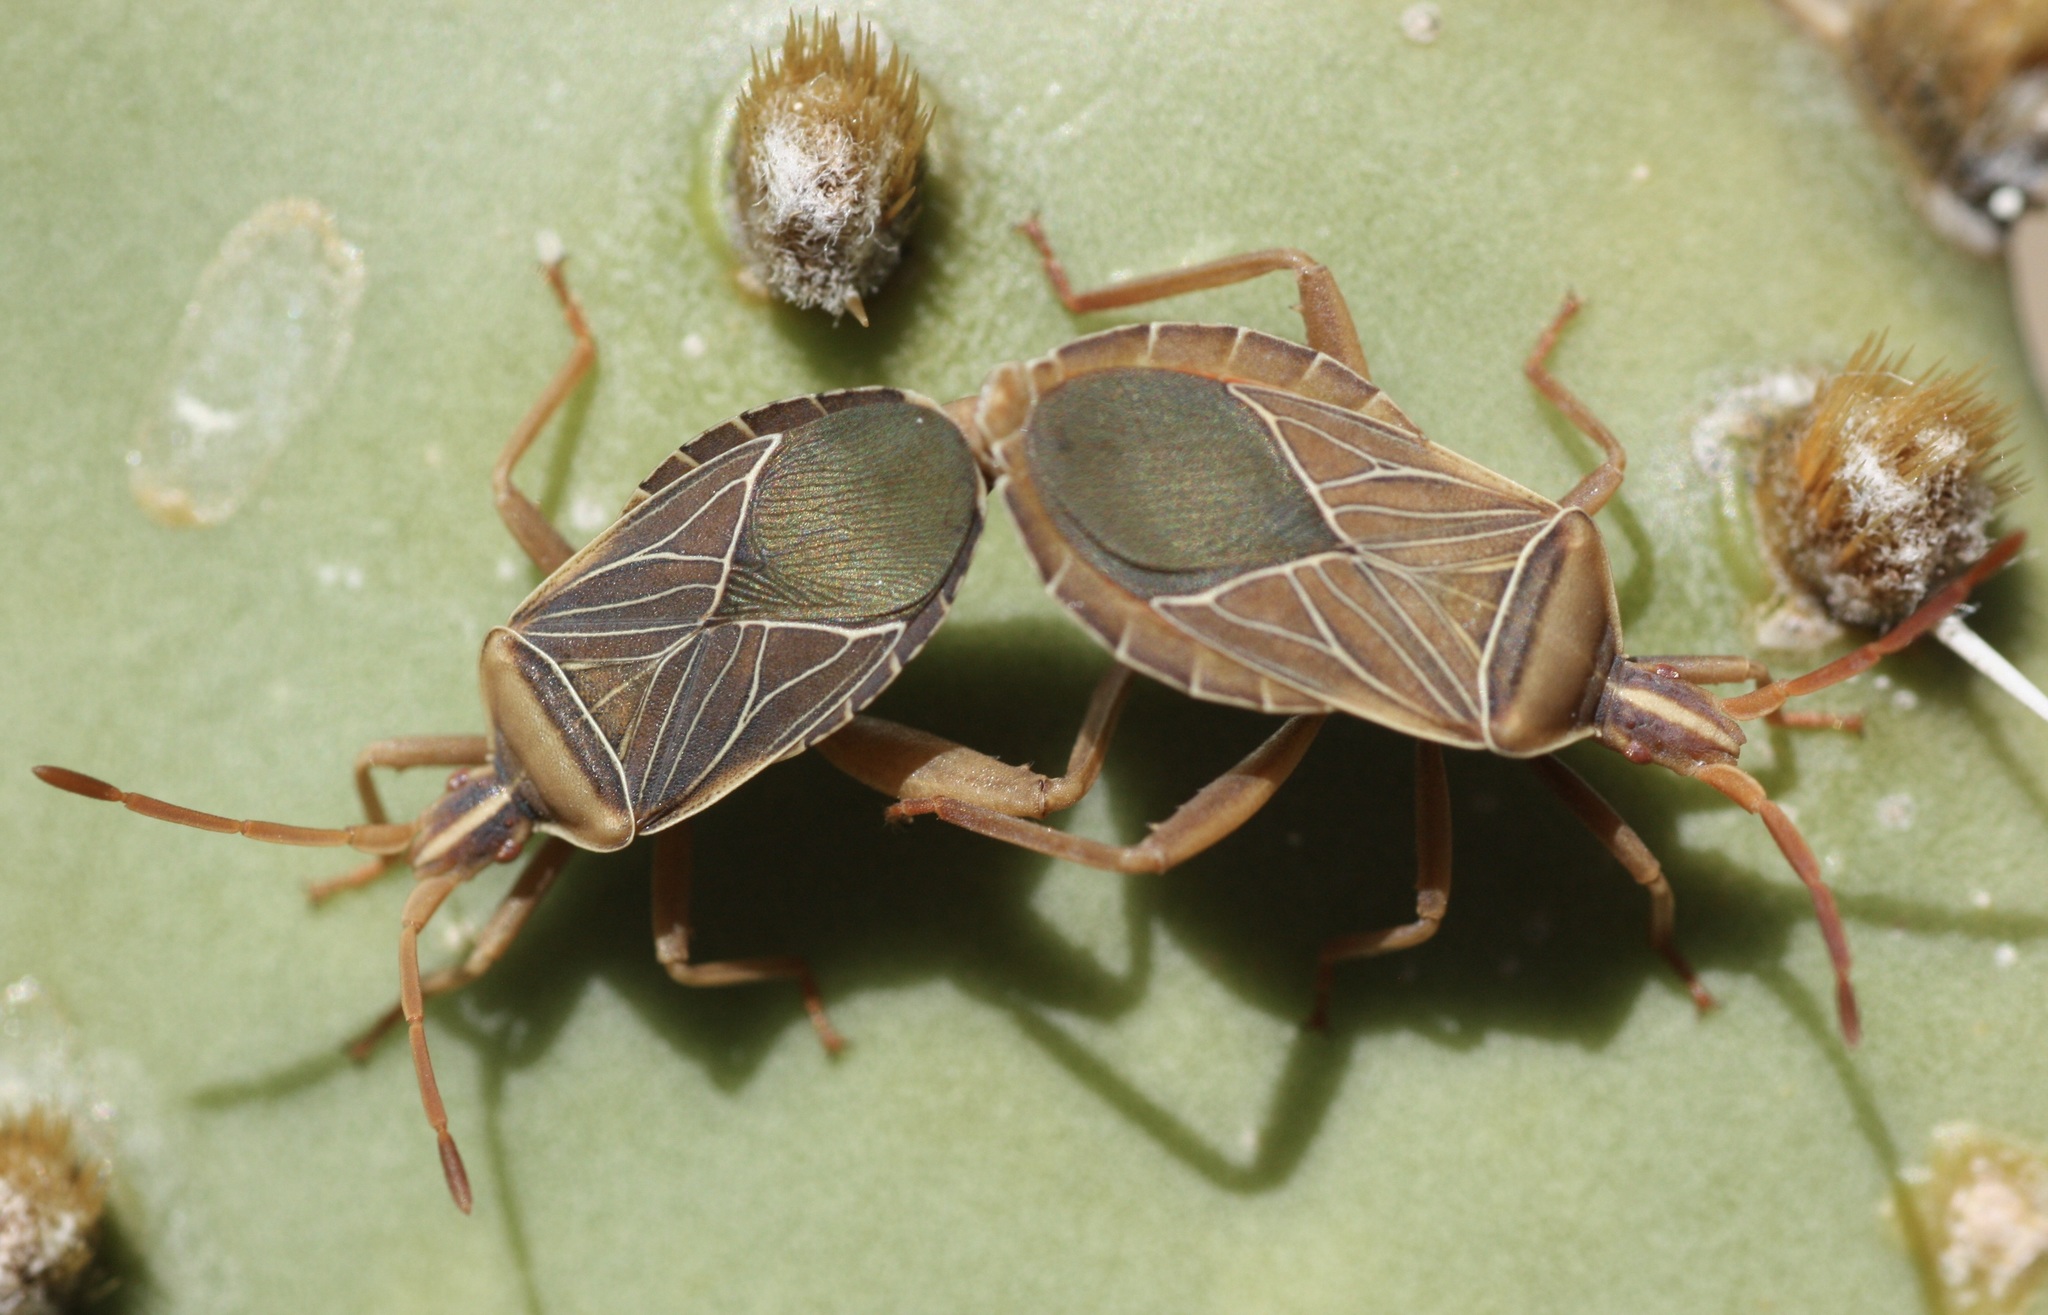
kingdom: Animalia
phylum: Arthropoda
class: Insecta
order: Hemiptera
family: Coreidae
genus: Chelinidea
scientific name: Chelinidea vittiger
